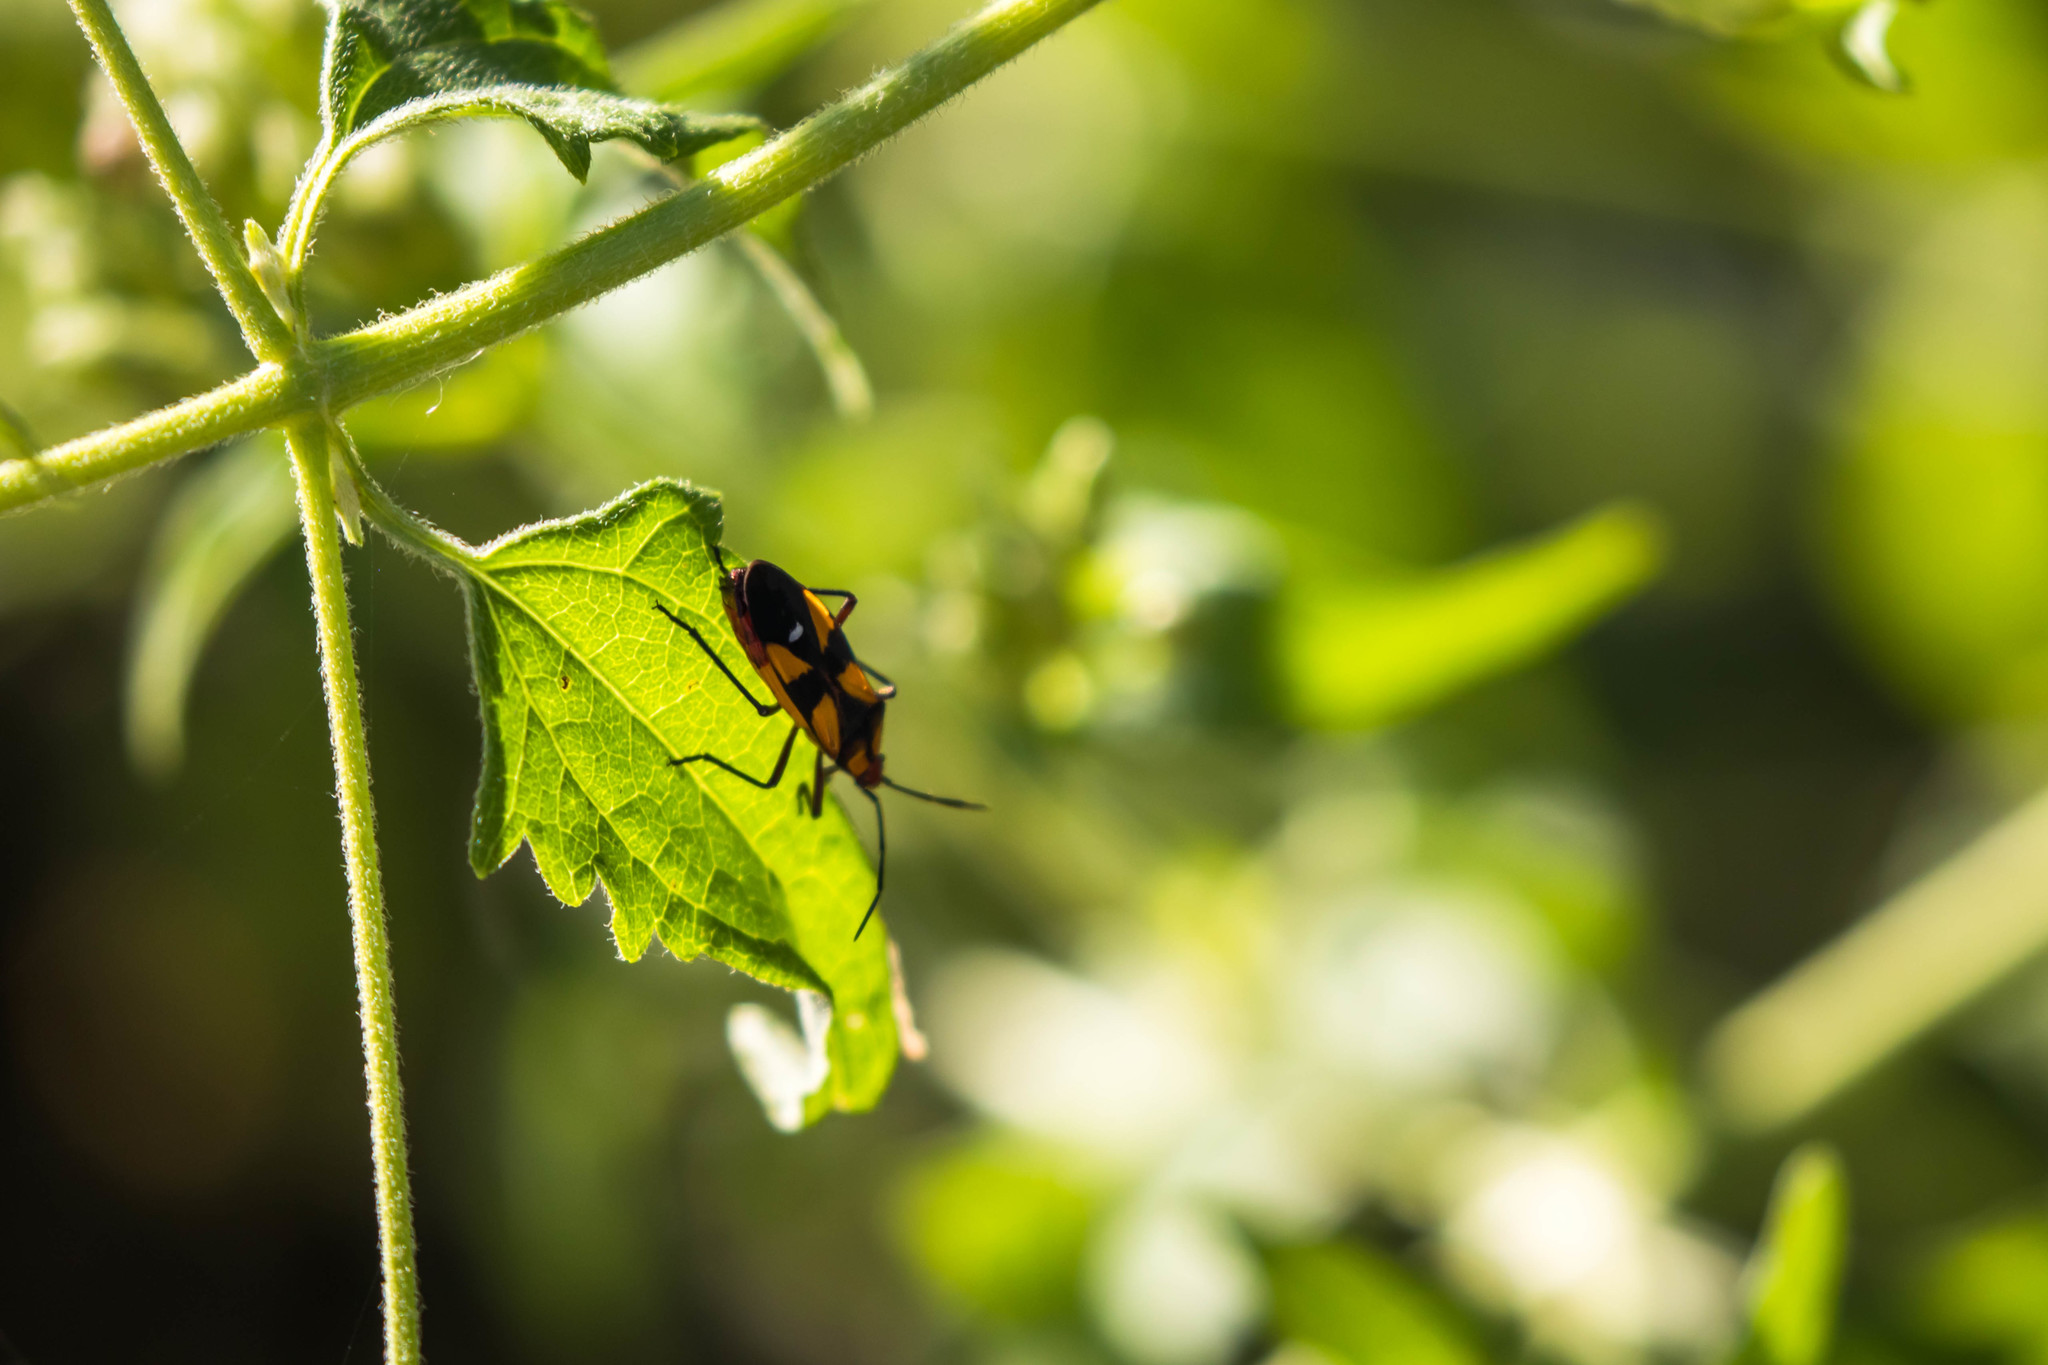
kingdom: Animalia
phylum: Arthropoda
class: Insecta
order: Hemiptera
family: Lygaeidae
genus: Oncopeltus
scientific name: Oncopeltus sexmaculatus
